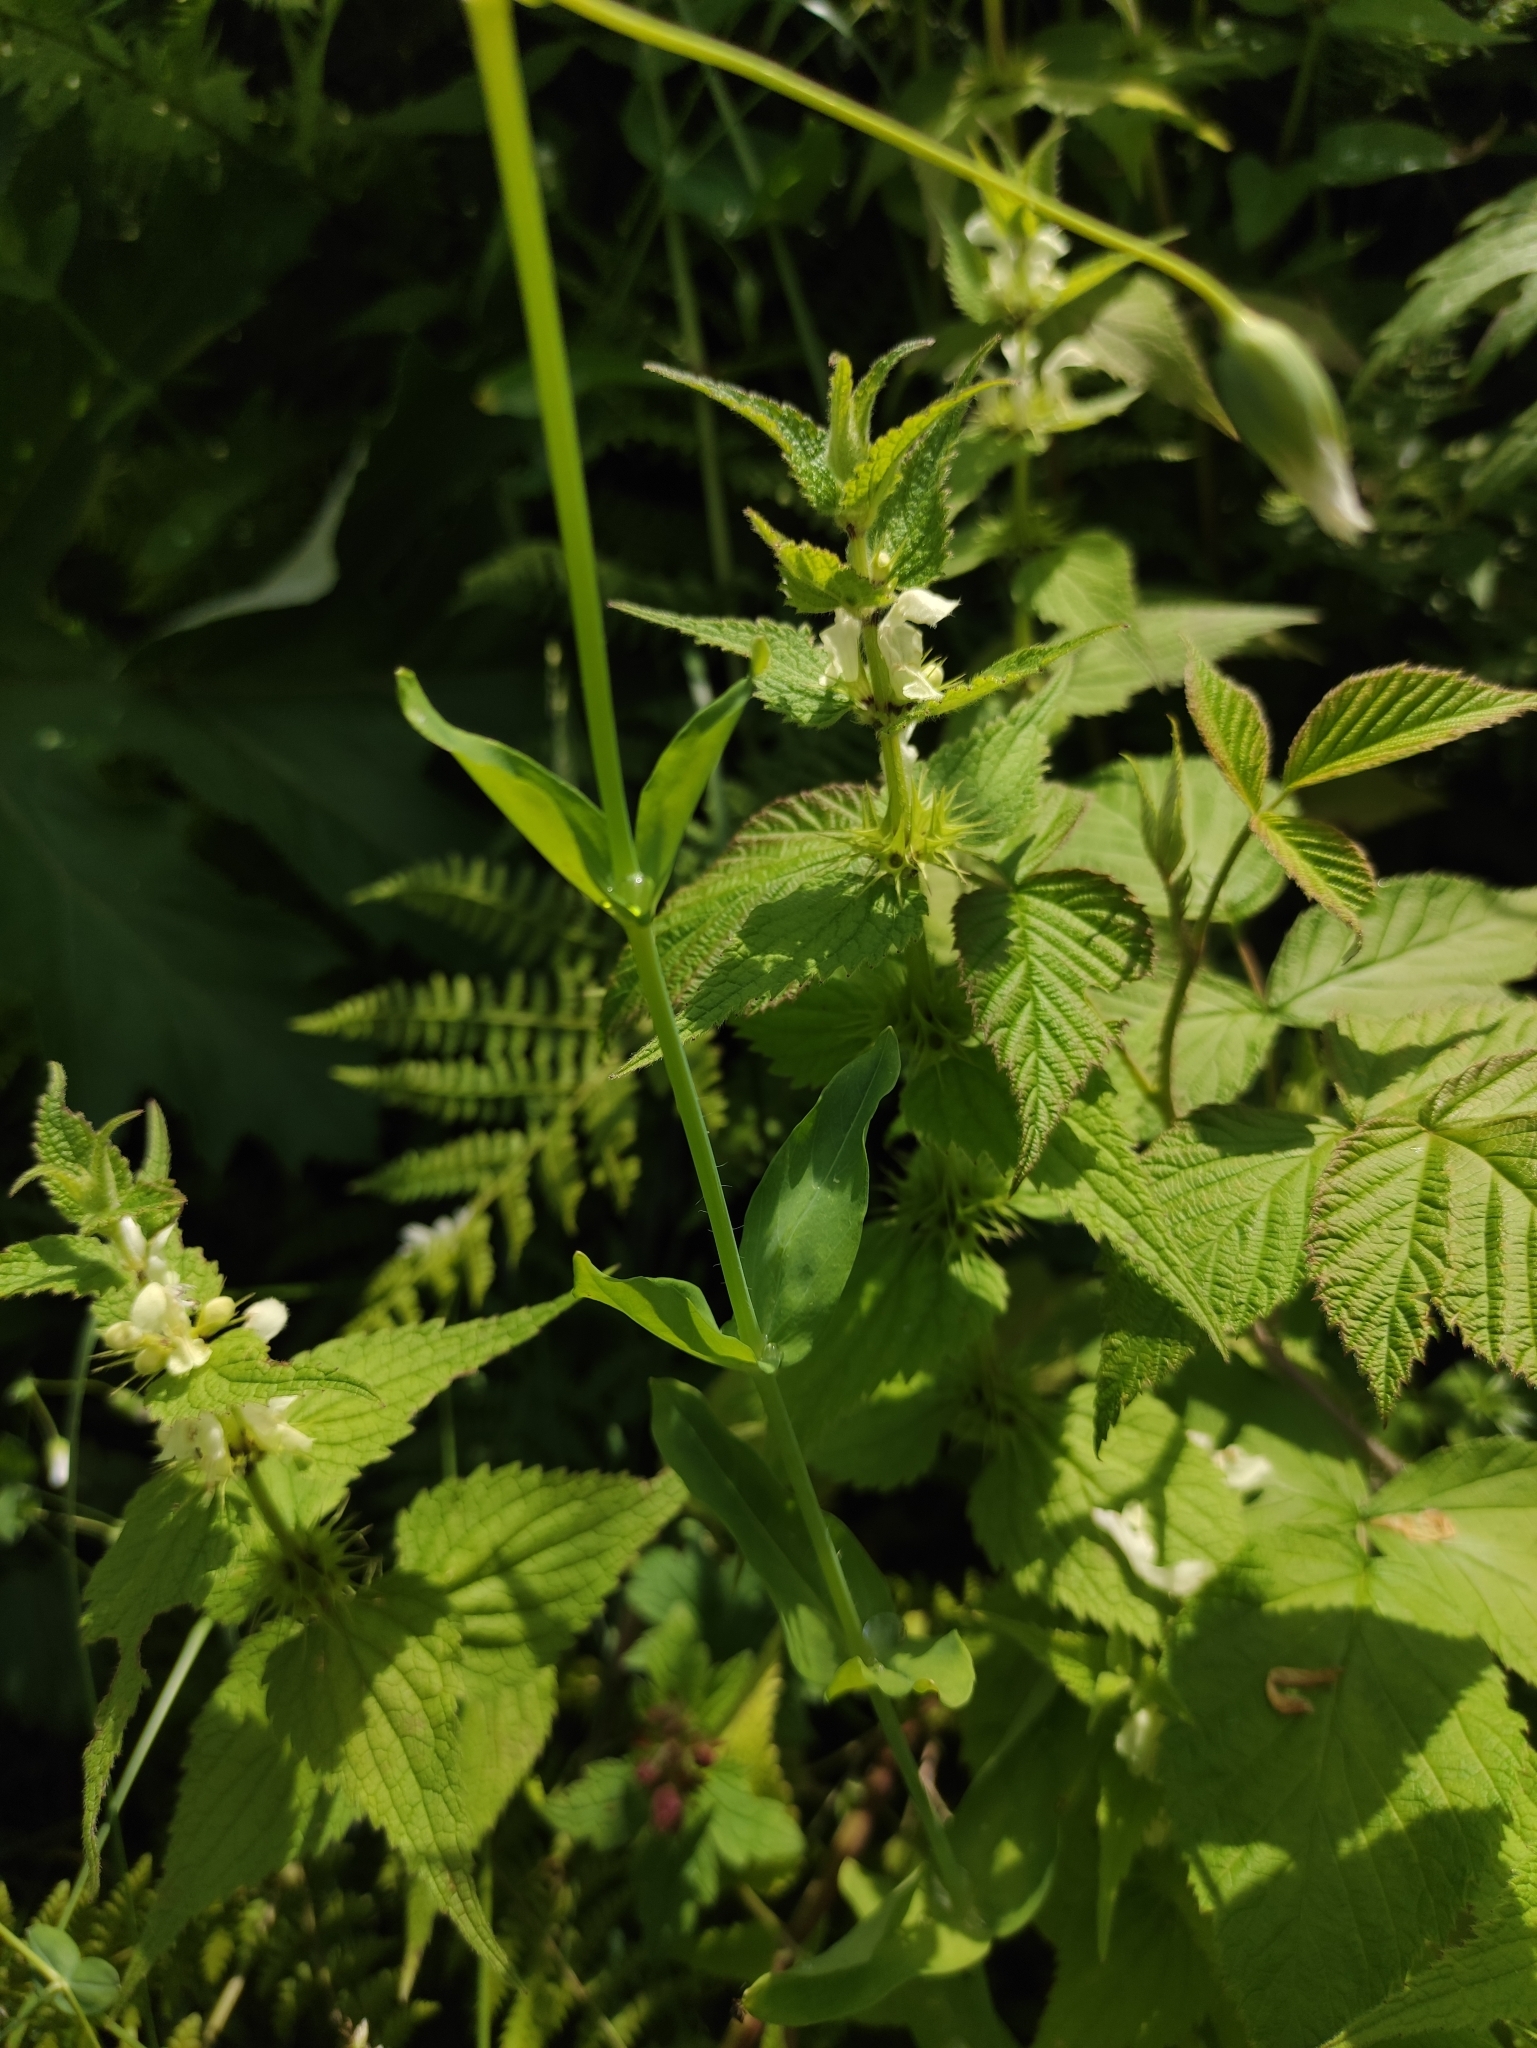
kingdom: Plantae
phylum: Tracheophyta
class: Magnoliopsida
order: Caryophyllales
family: Caryophyllaceae
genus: Cerastium
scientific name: Cerastium davuricum
